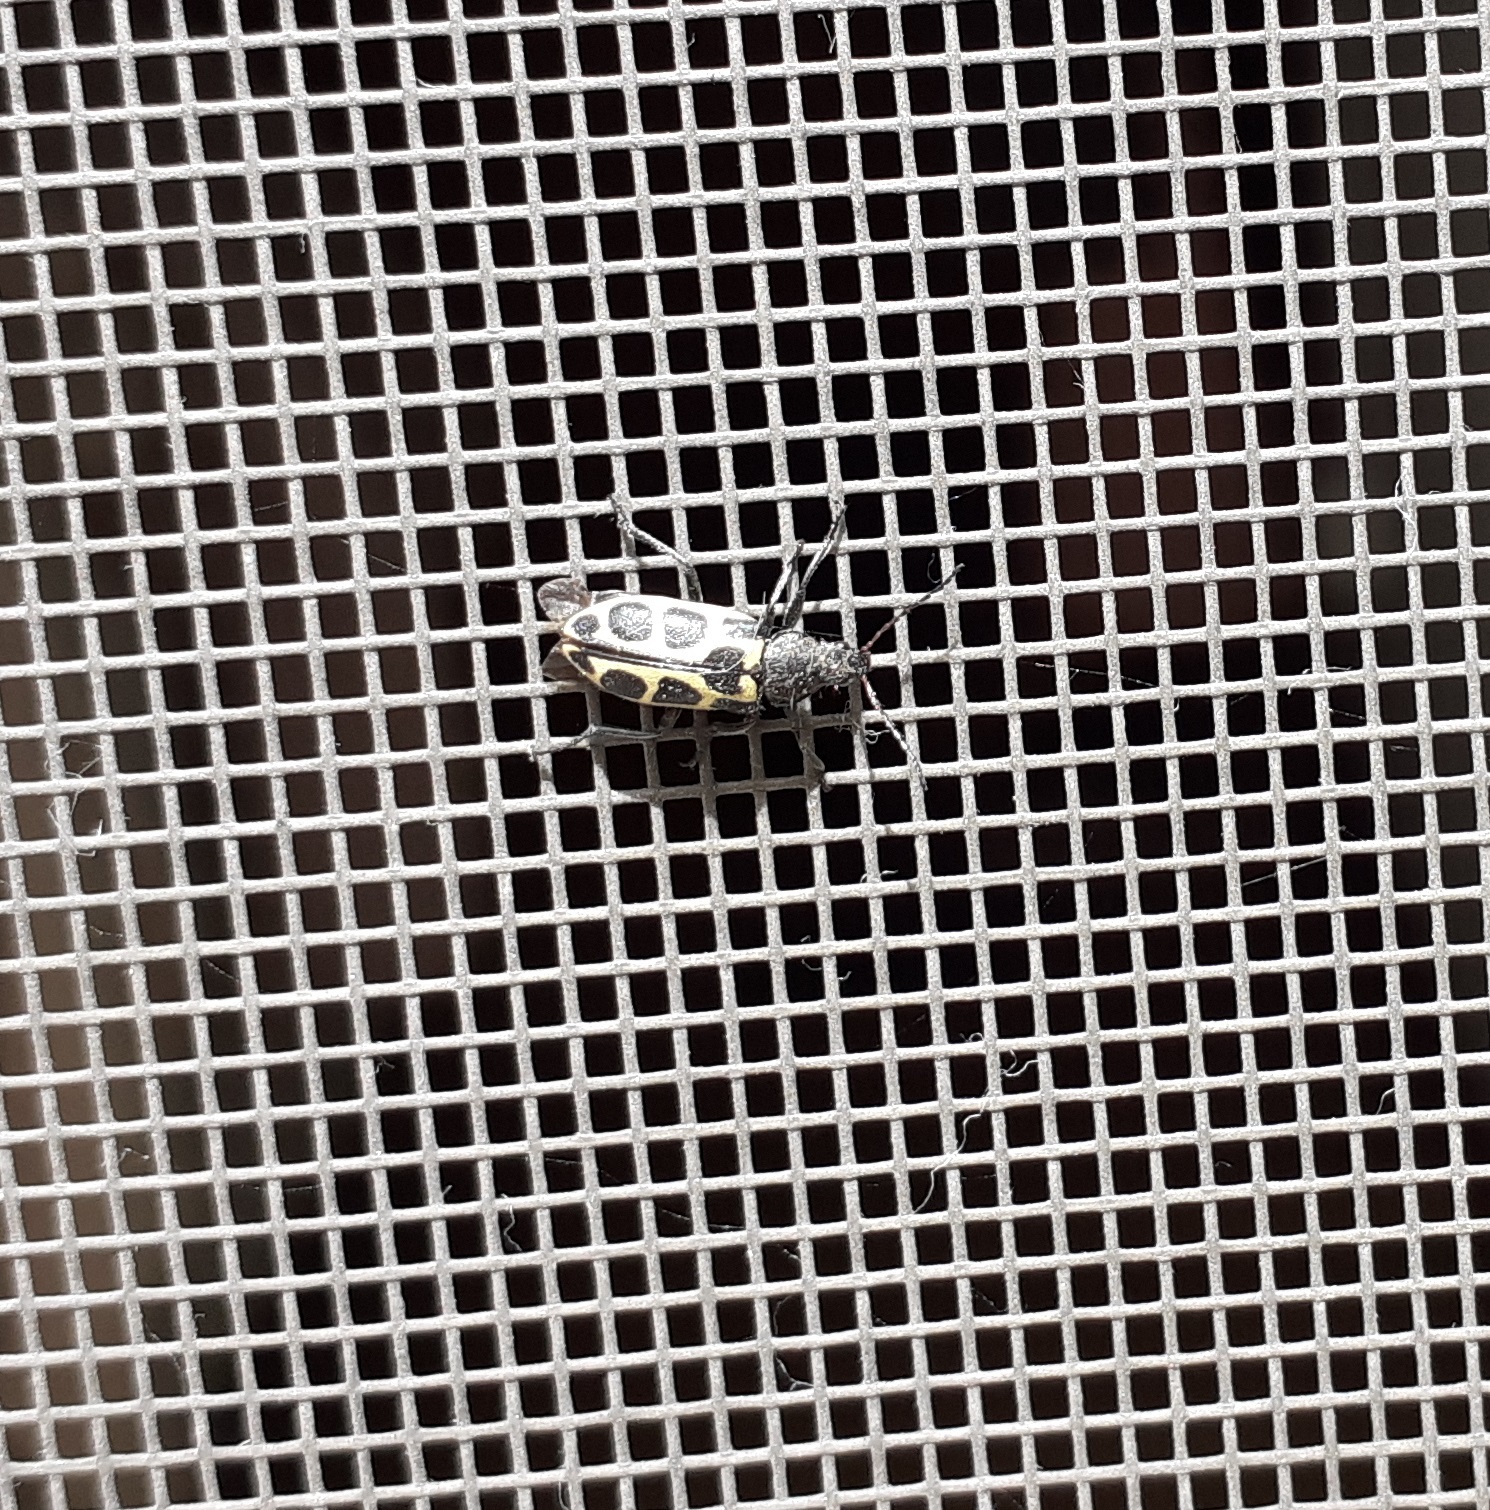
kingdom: Animalia
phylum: Arthropoda
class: Insecta
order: Coleoptera
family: Melyridae
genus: Astylus
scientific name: Astylus
